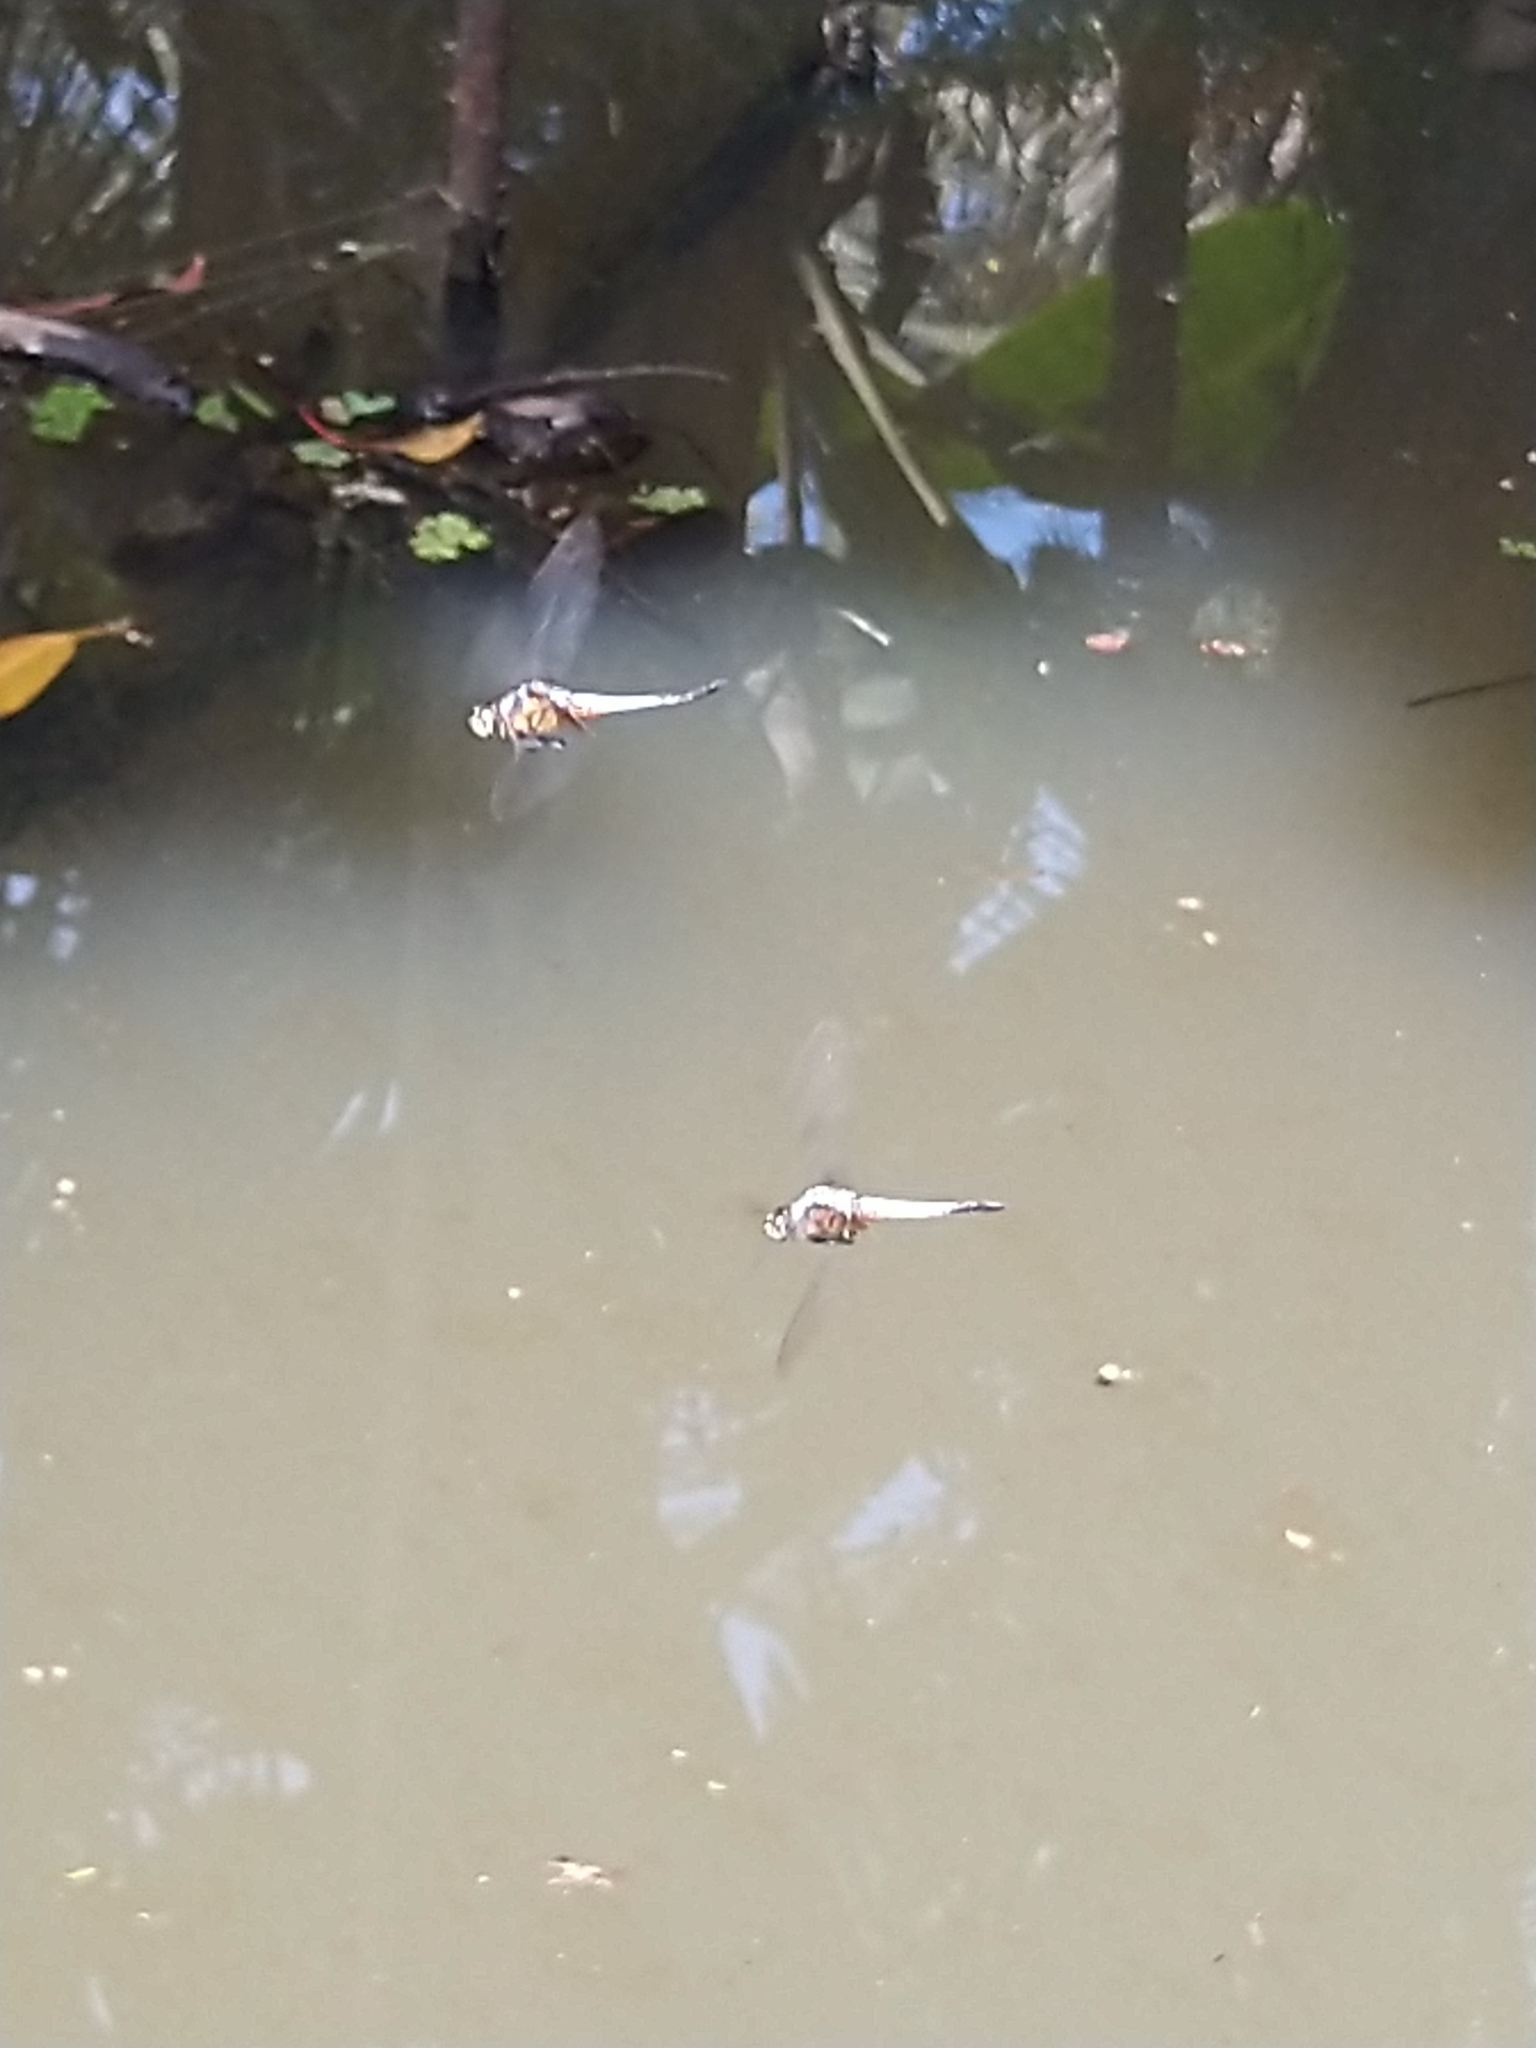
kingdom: Animalia
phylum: Arthropoda
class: Insecta
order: Odonata
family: Libellulidae
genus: Brachydiplax
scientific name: Brachydiplax chalybea
